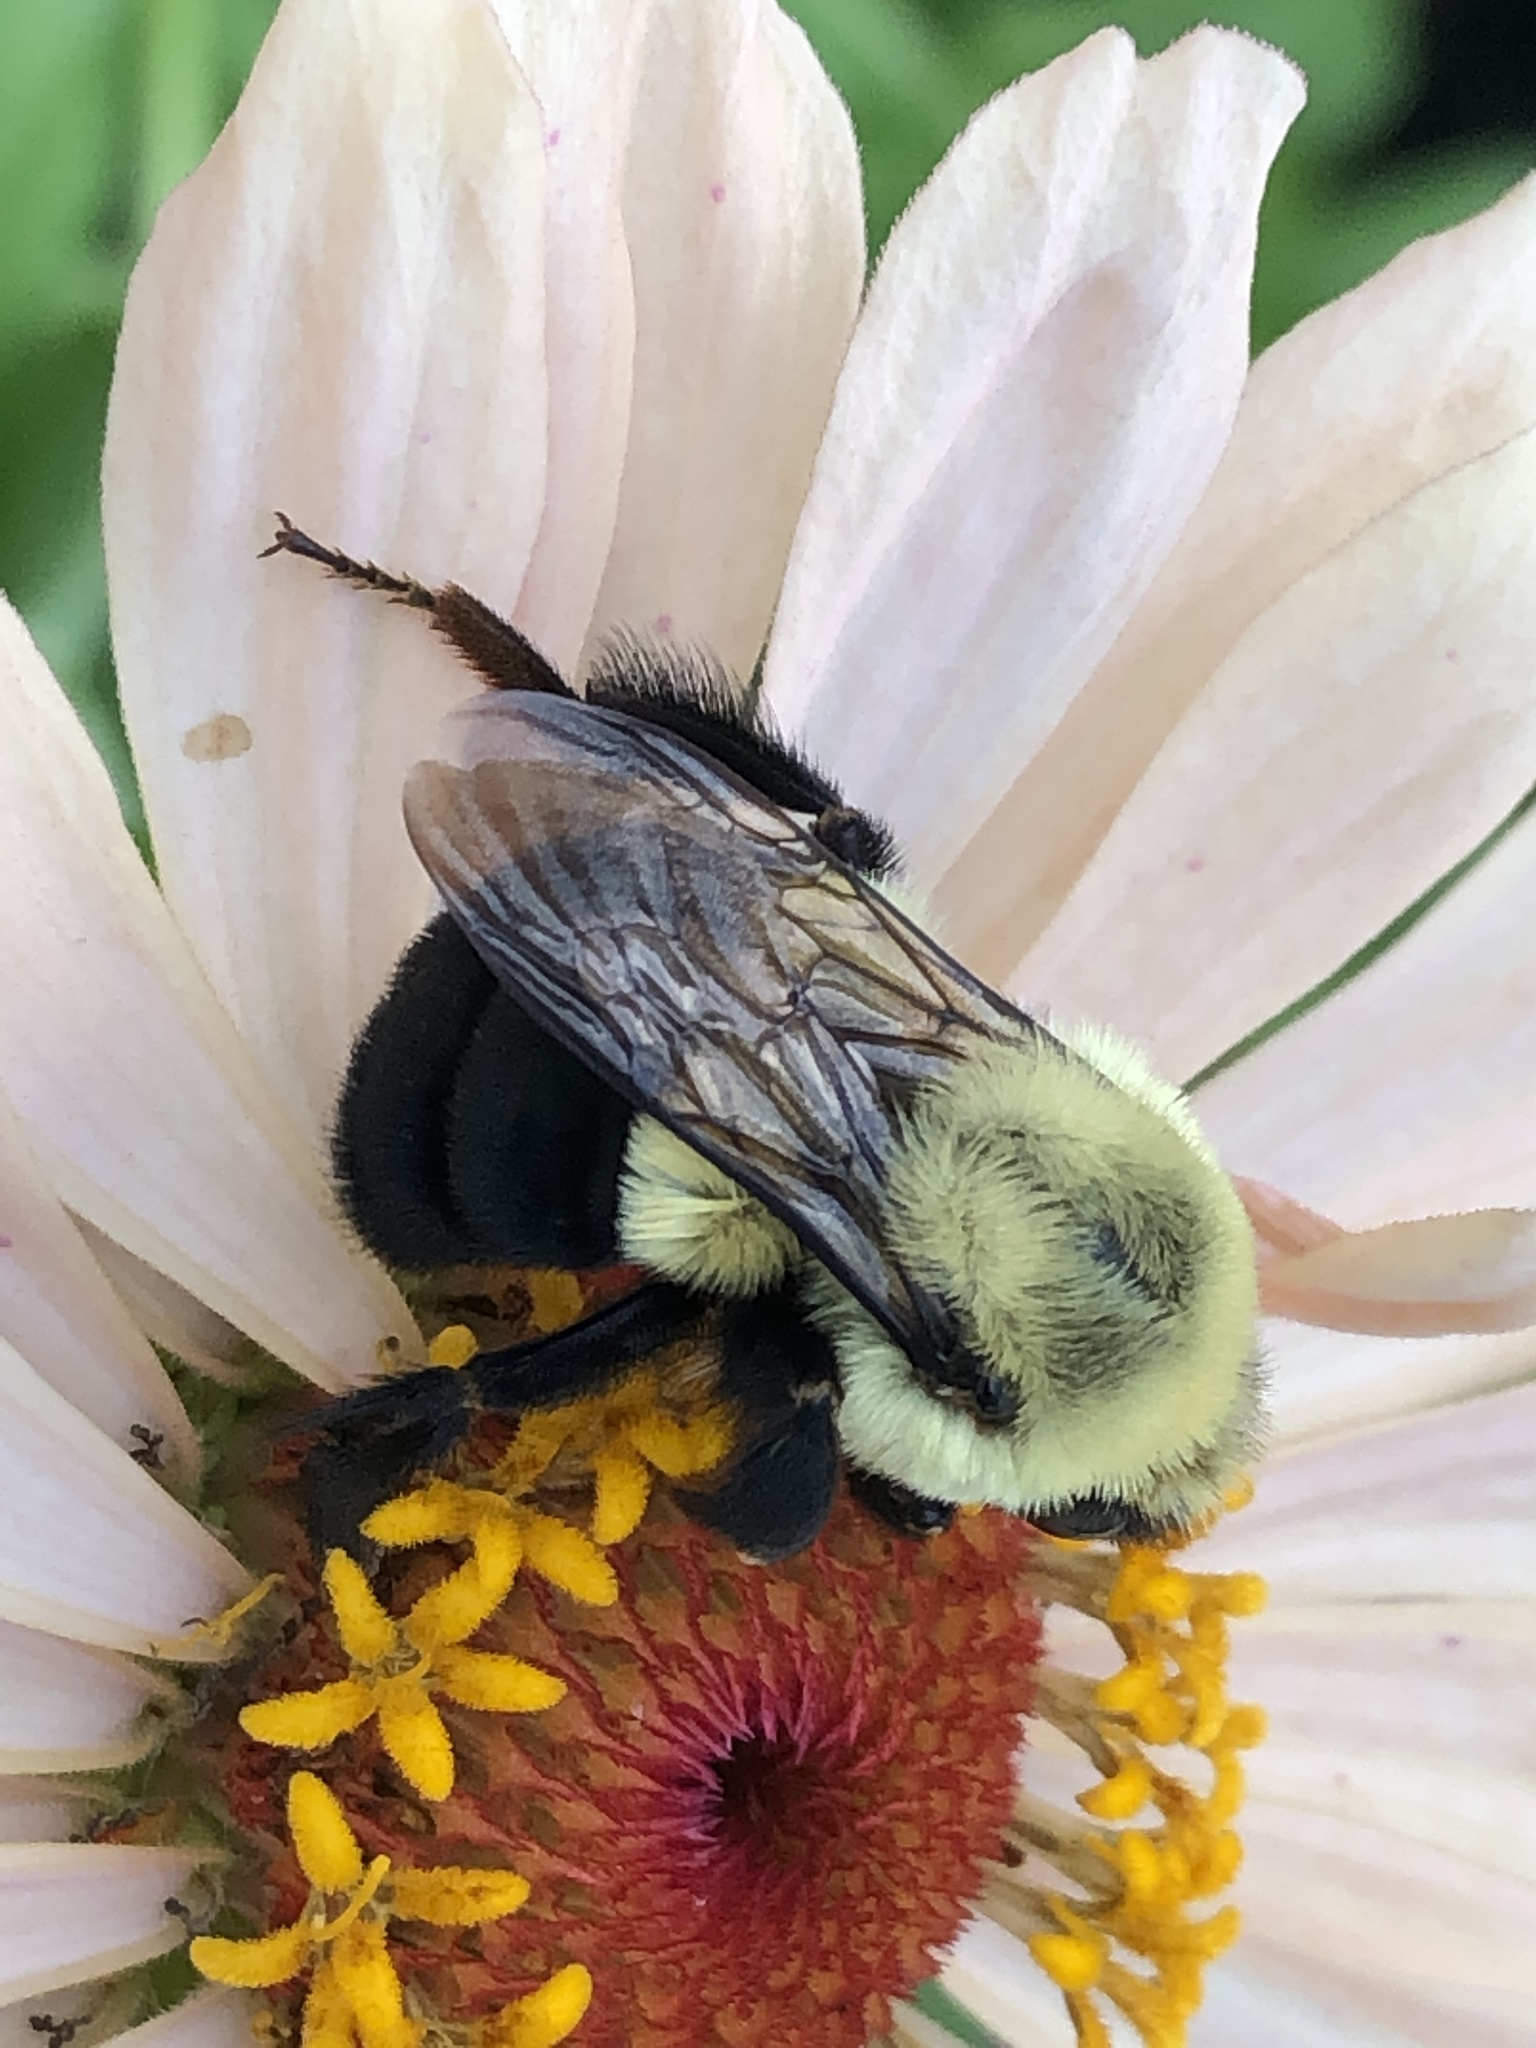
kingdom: Animalia
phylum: Arthropoda
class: Insecta
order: Hymenoptera
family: Apidae
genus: Bombus
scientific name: Bombus impatiens
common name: Common eastern bumble bee
